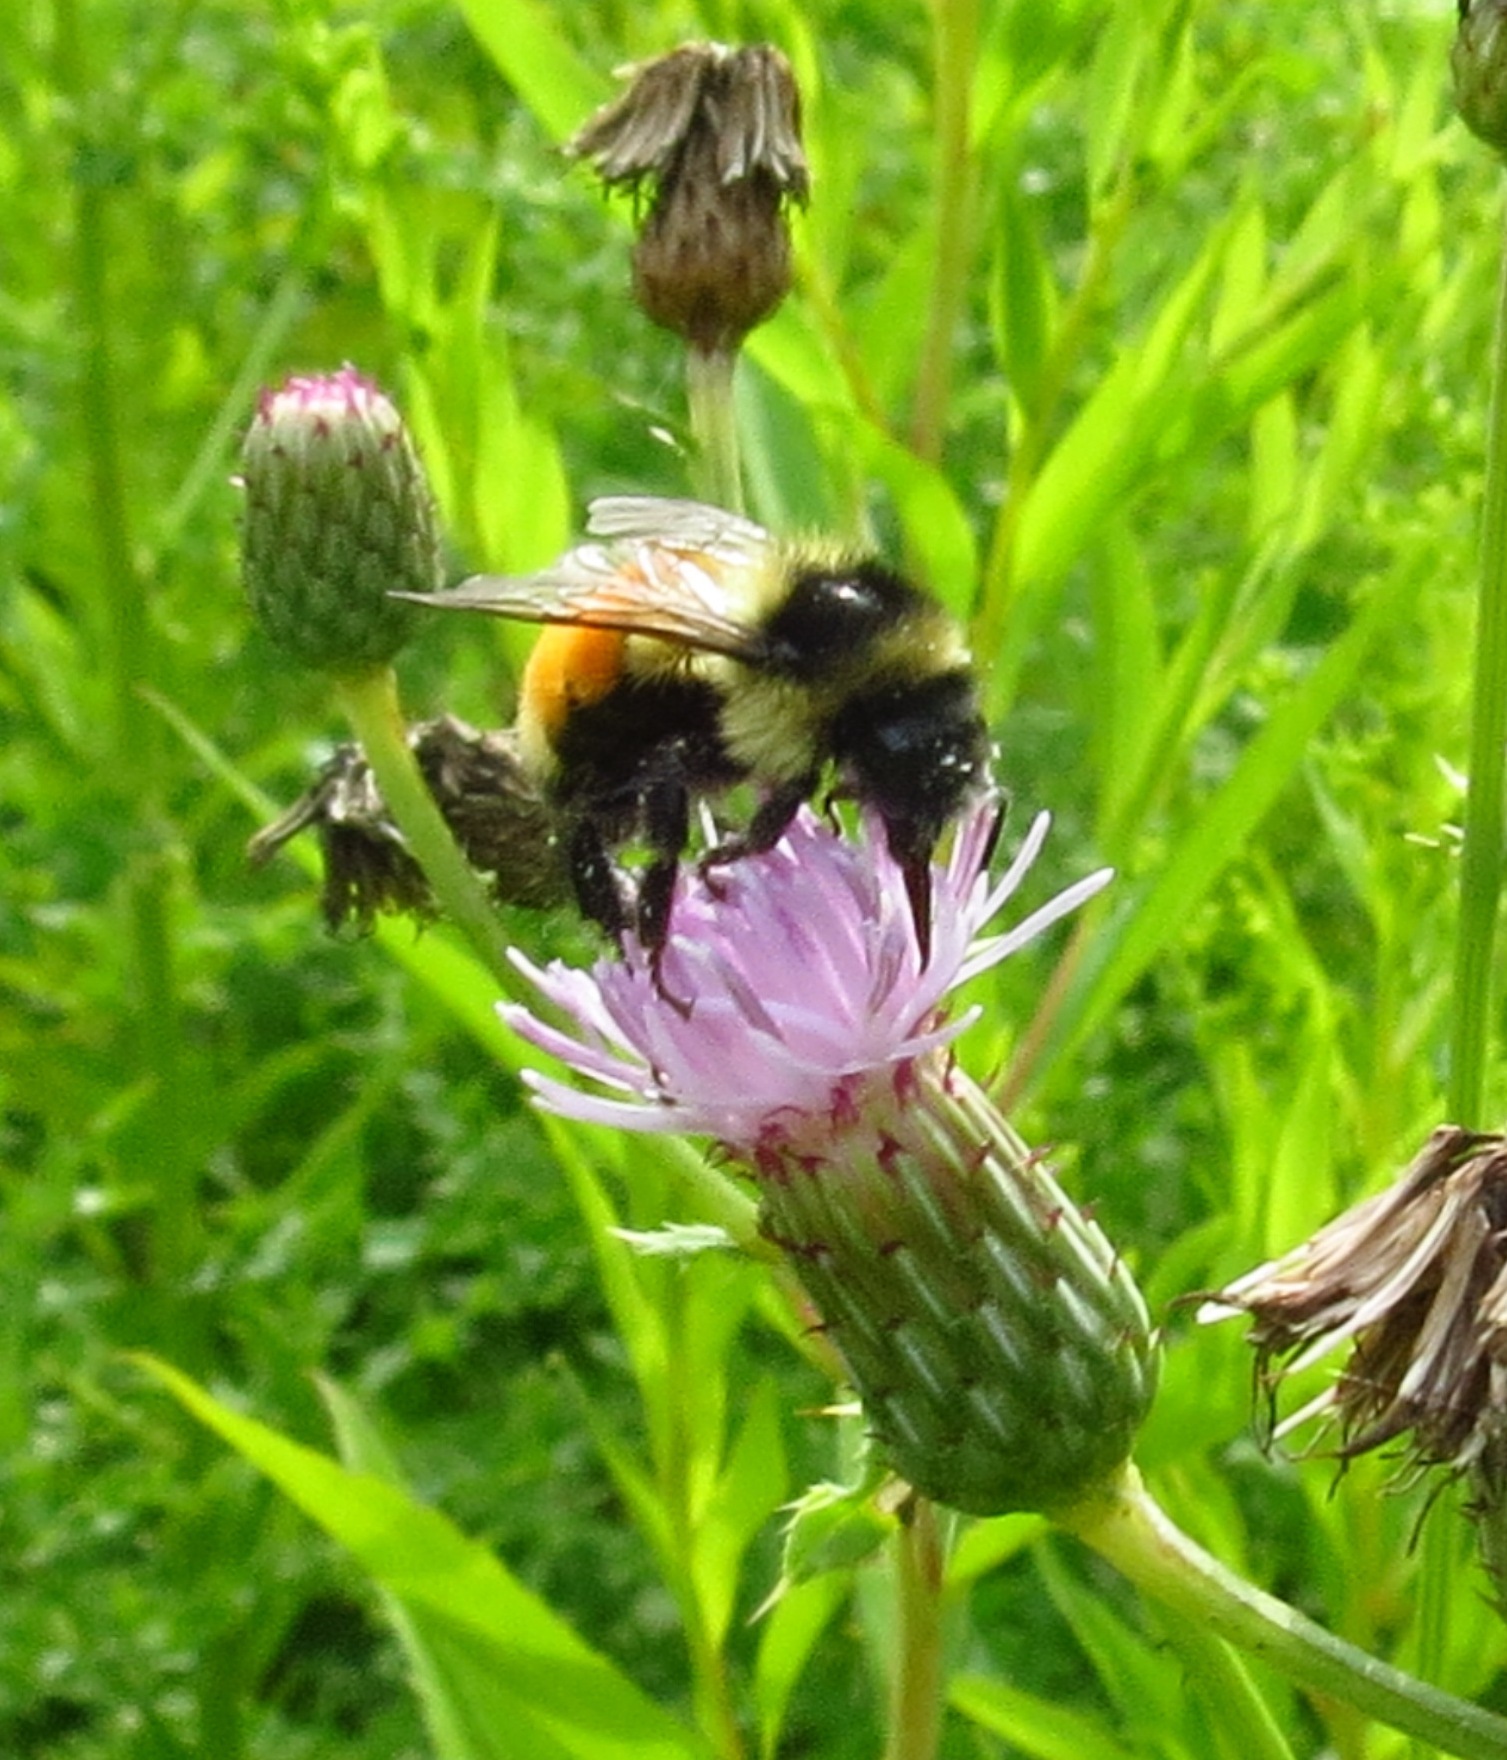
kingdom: Animalia
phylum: Arthropoda
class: Insecta
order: Hymenoptera
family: Apidae
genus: Bombus
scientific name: Bombus ternarius
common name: Tri-colored bumble bee
